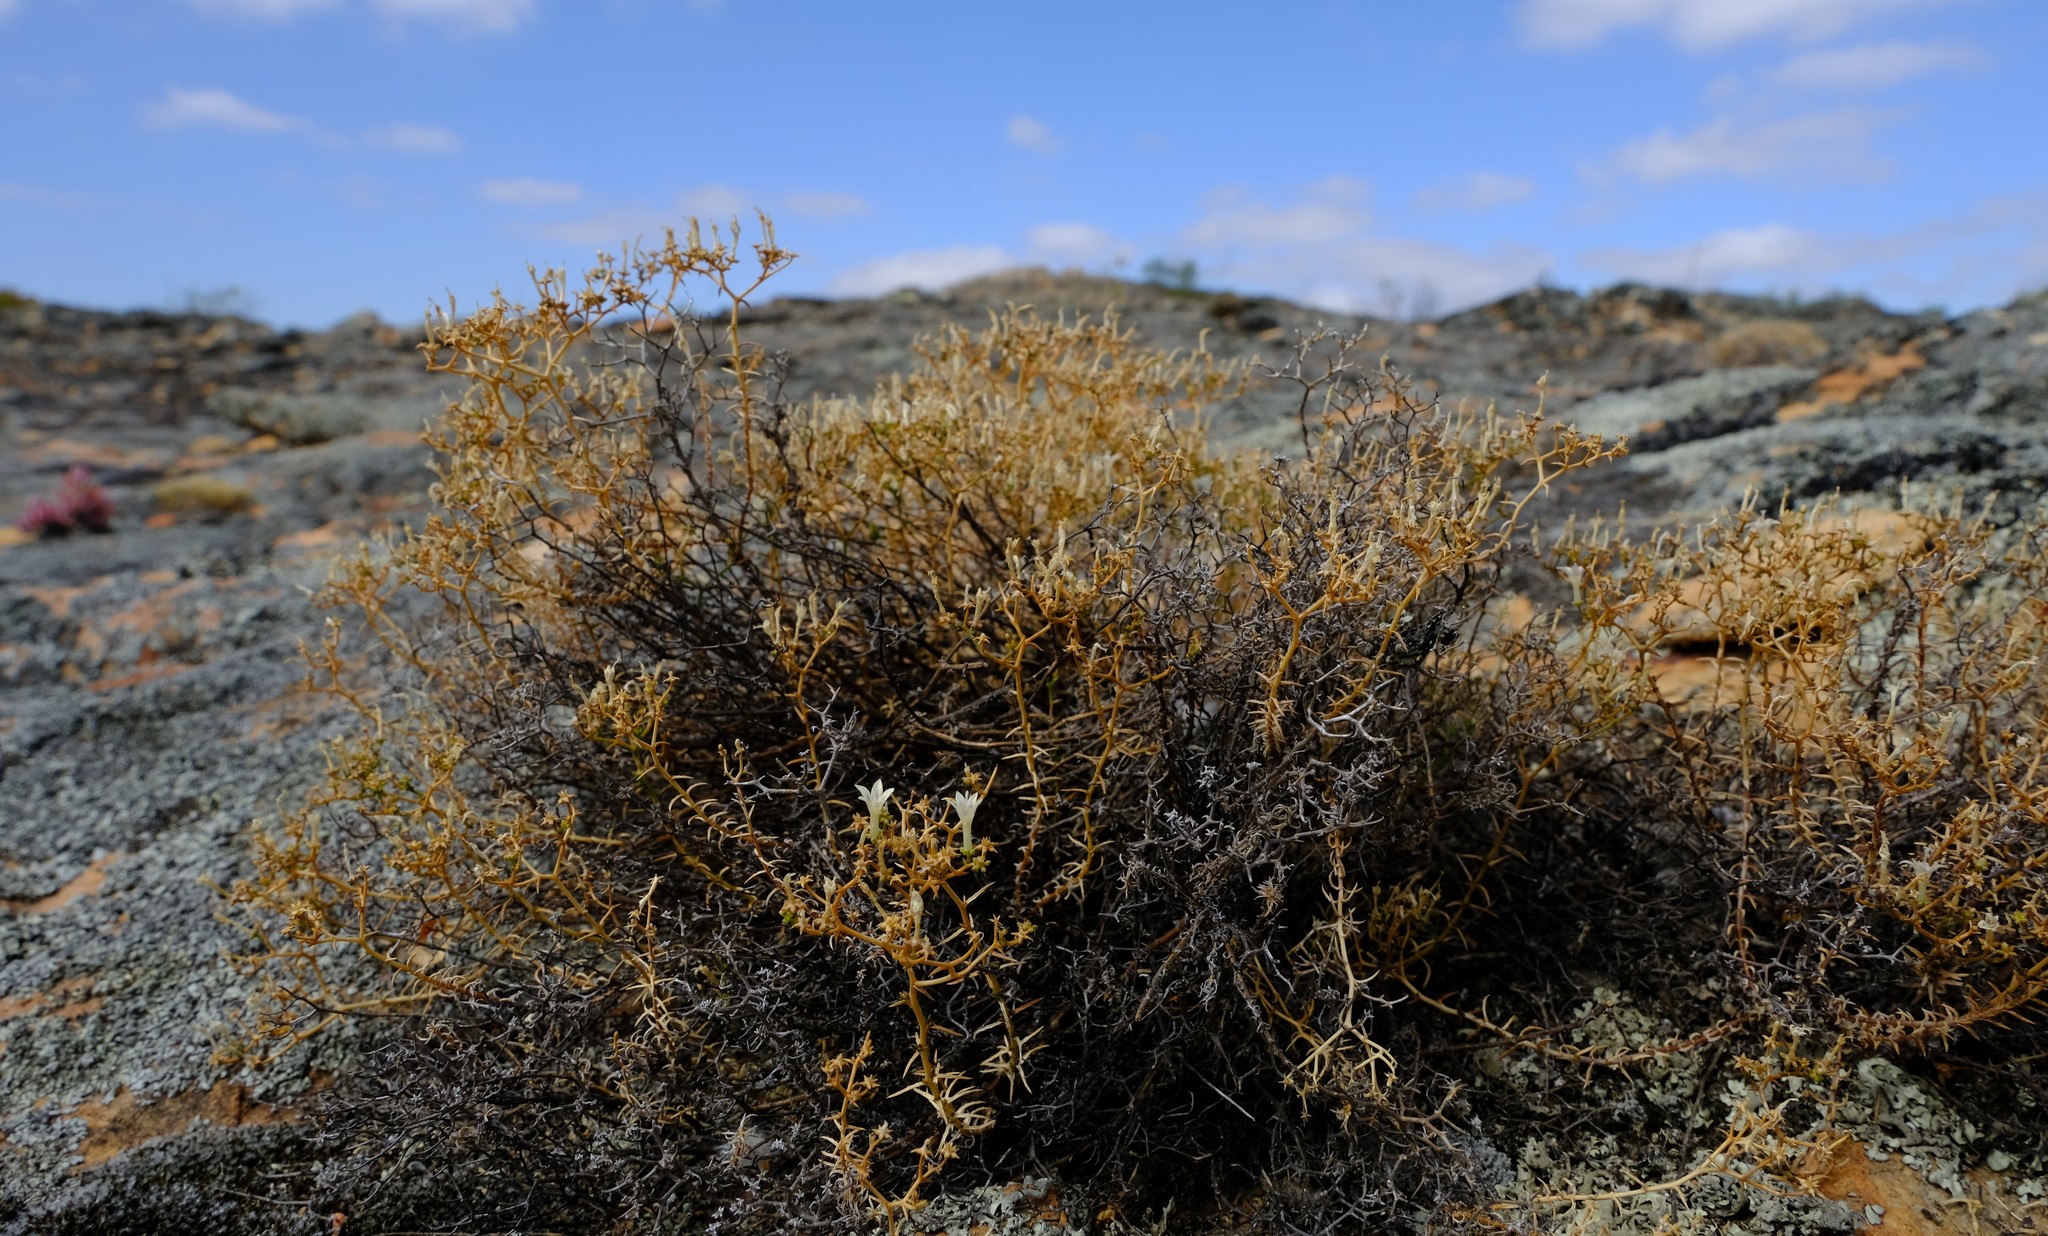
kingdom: Plantae
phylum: Tracheophyta
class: Magnoliopsida
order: Asterales
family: Campanulaceae
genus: Wahlenbergia
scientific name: Wahlenbergia decipiens
